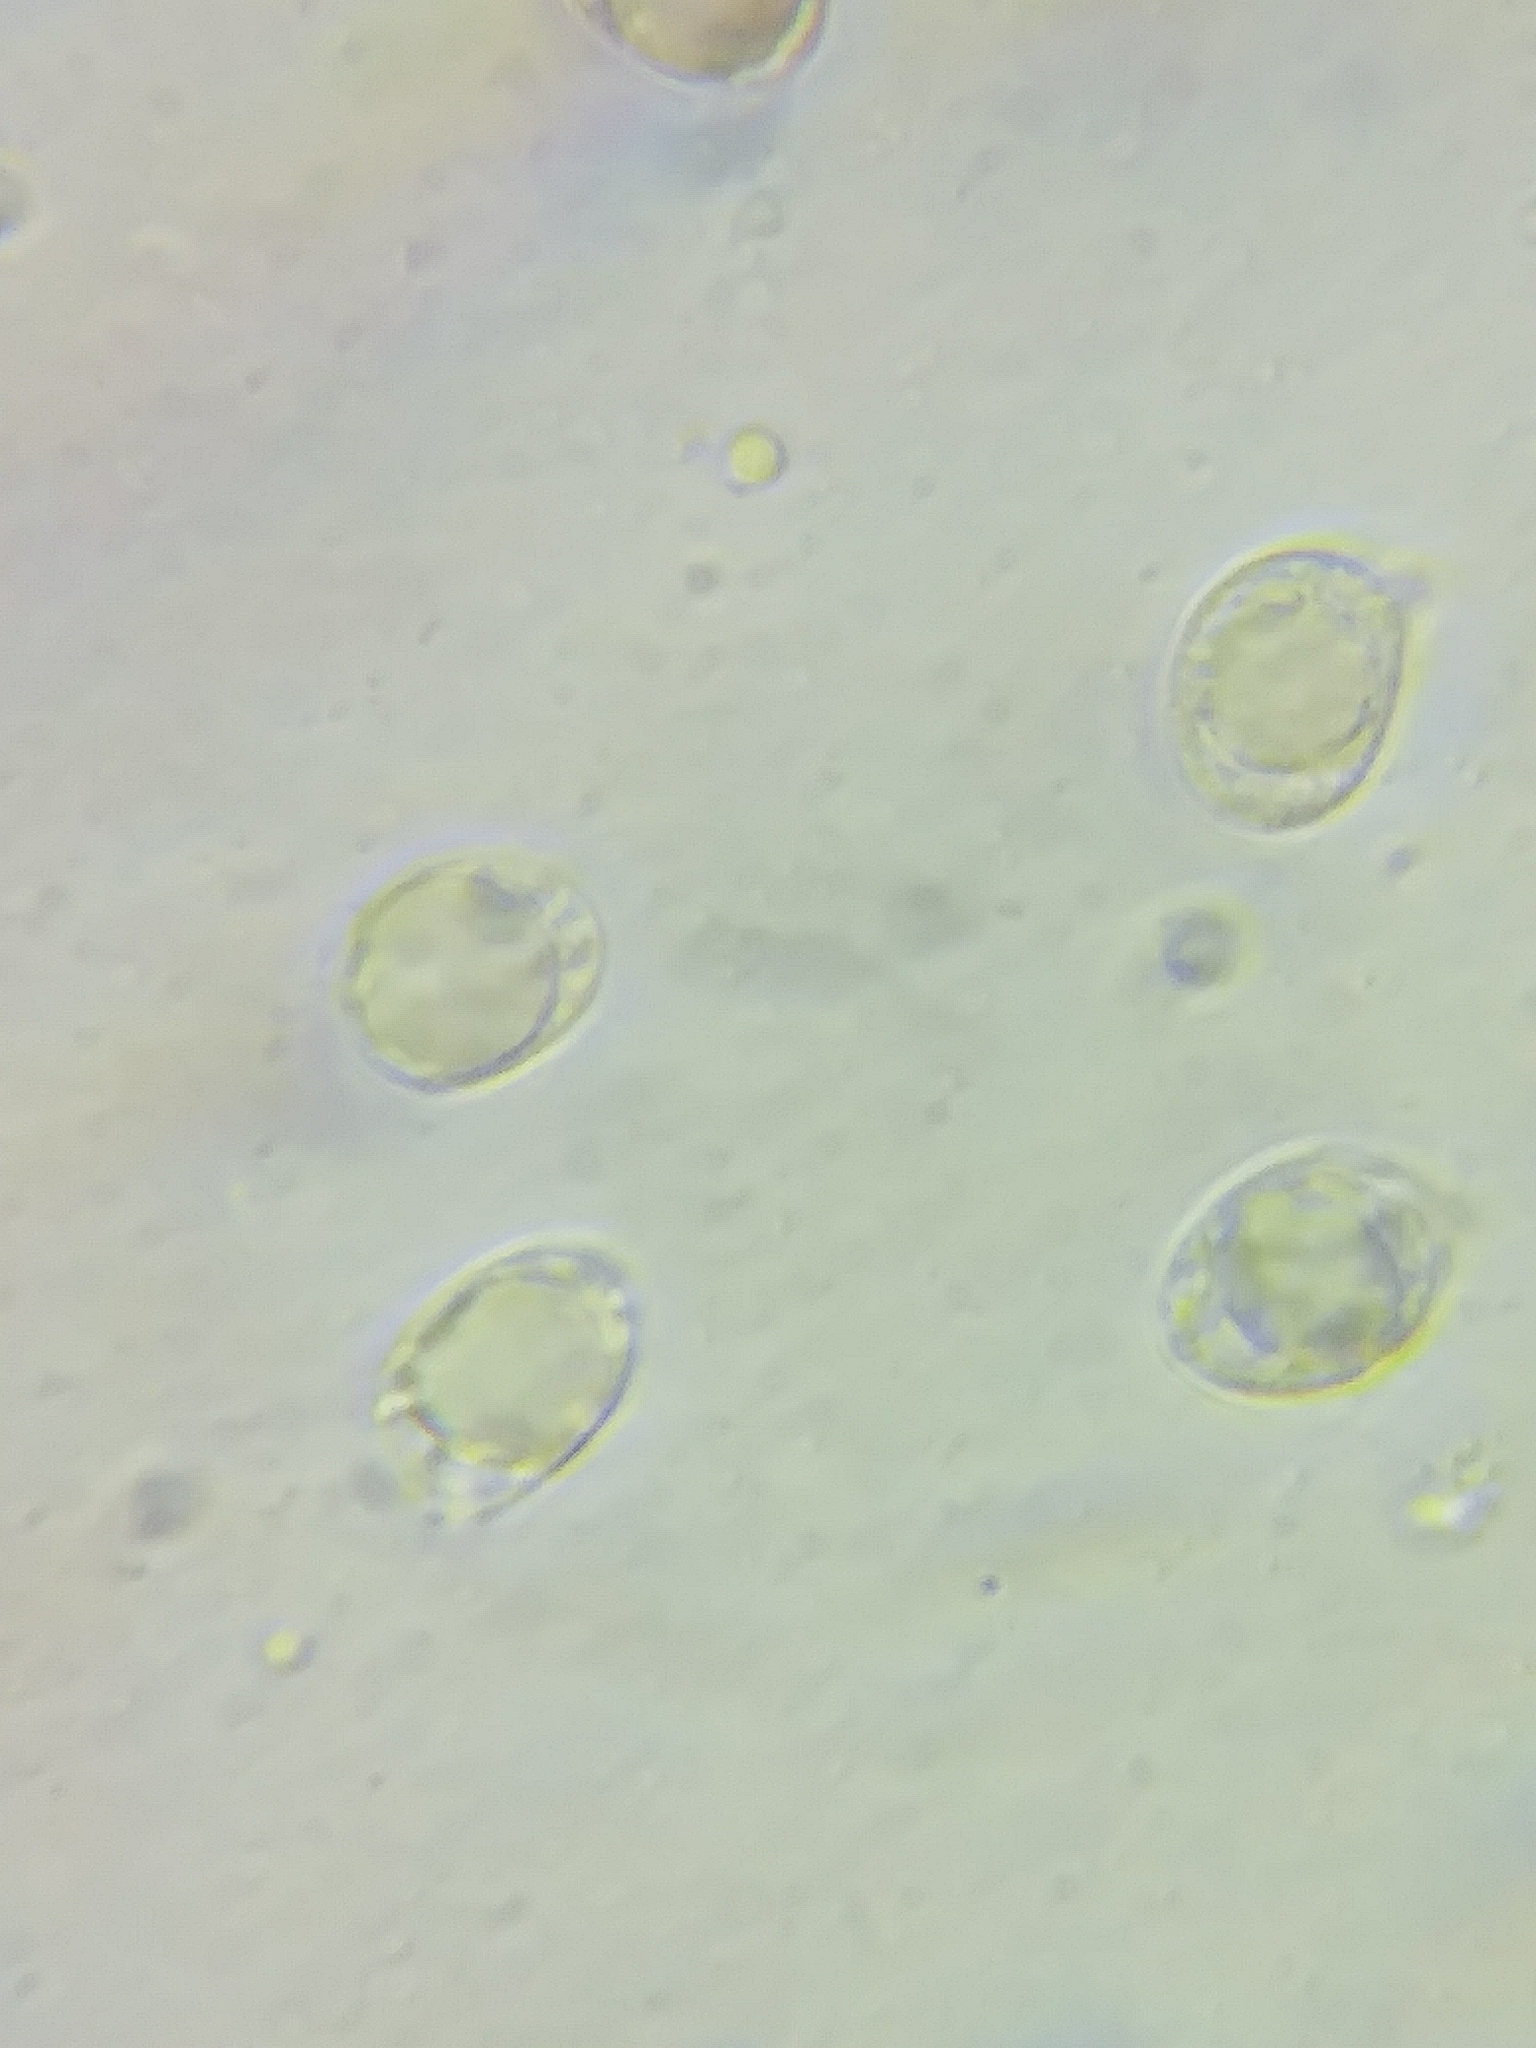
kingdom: Fungi
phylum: Basidiomycota
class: Agaricomycetes
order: Agaricales
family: Amanitaceae
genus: Amanita
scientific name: Amanita muscaria
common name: Fly agaric
